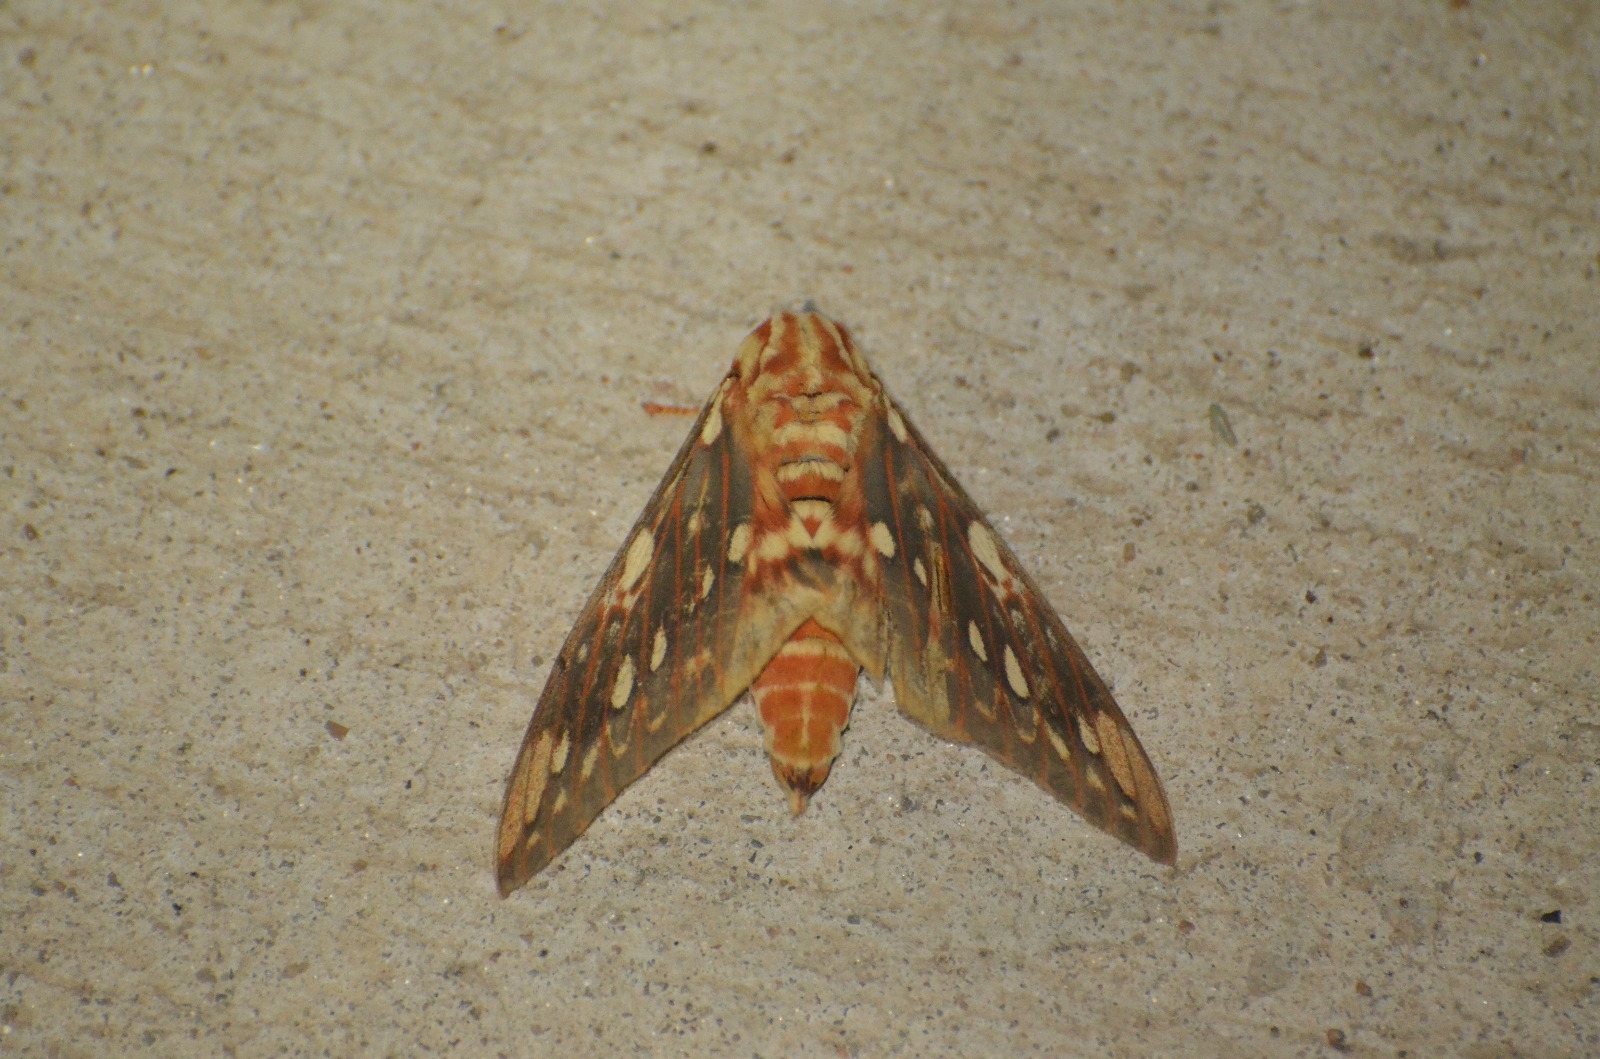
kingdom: Animalia
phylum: Arthropoda
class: Insecta
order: Lepidoptera
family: Saturniidae
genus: Citheronia
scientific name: Citheronia brissotii
